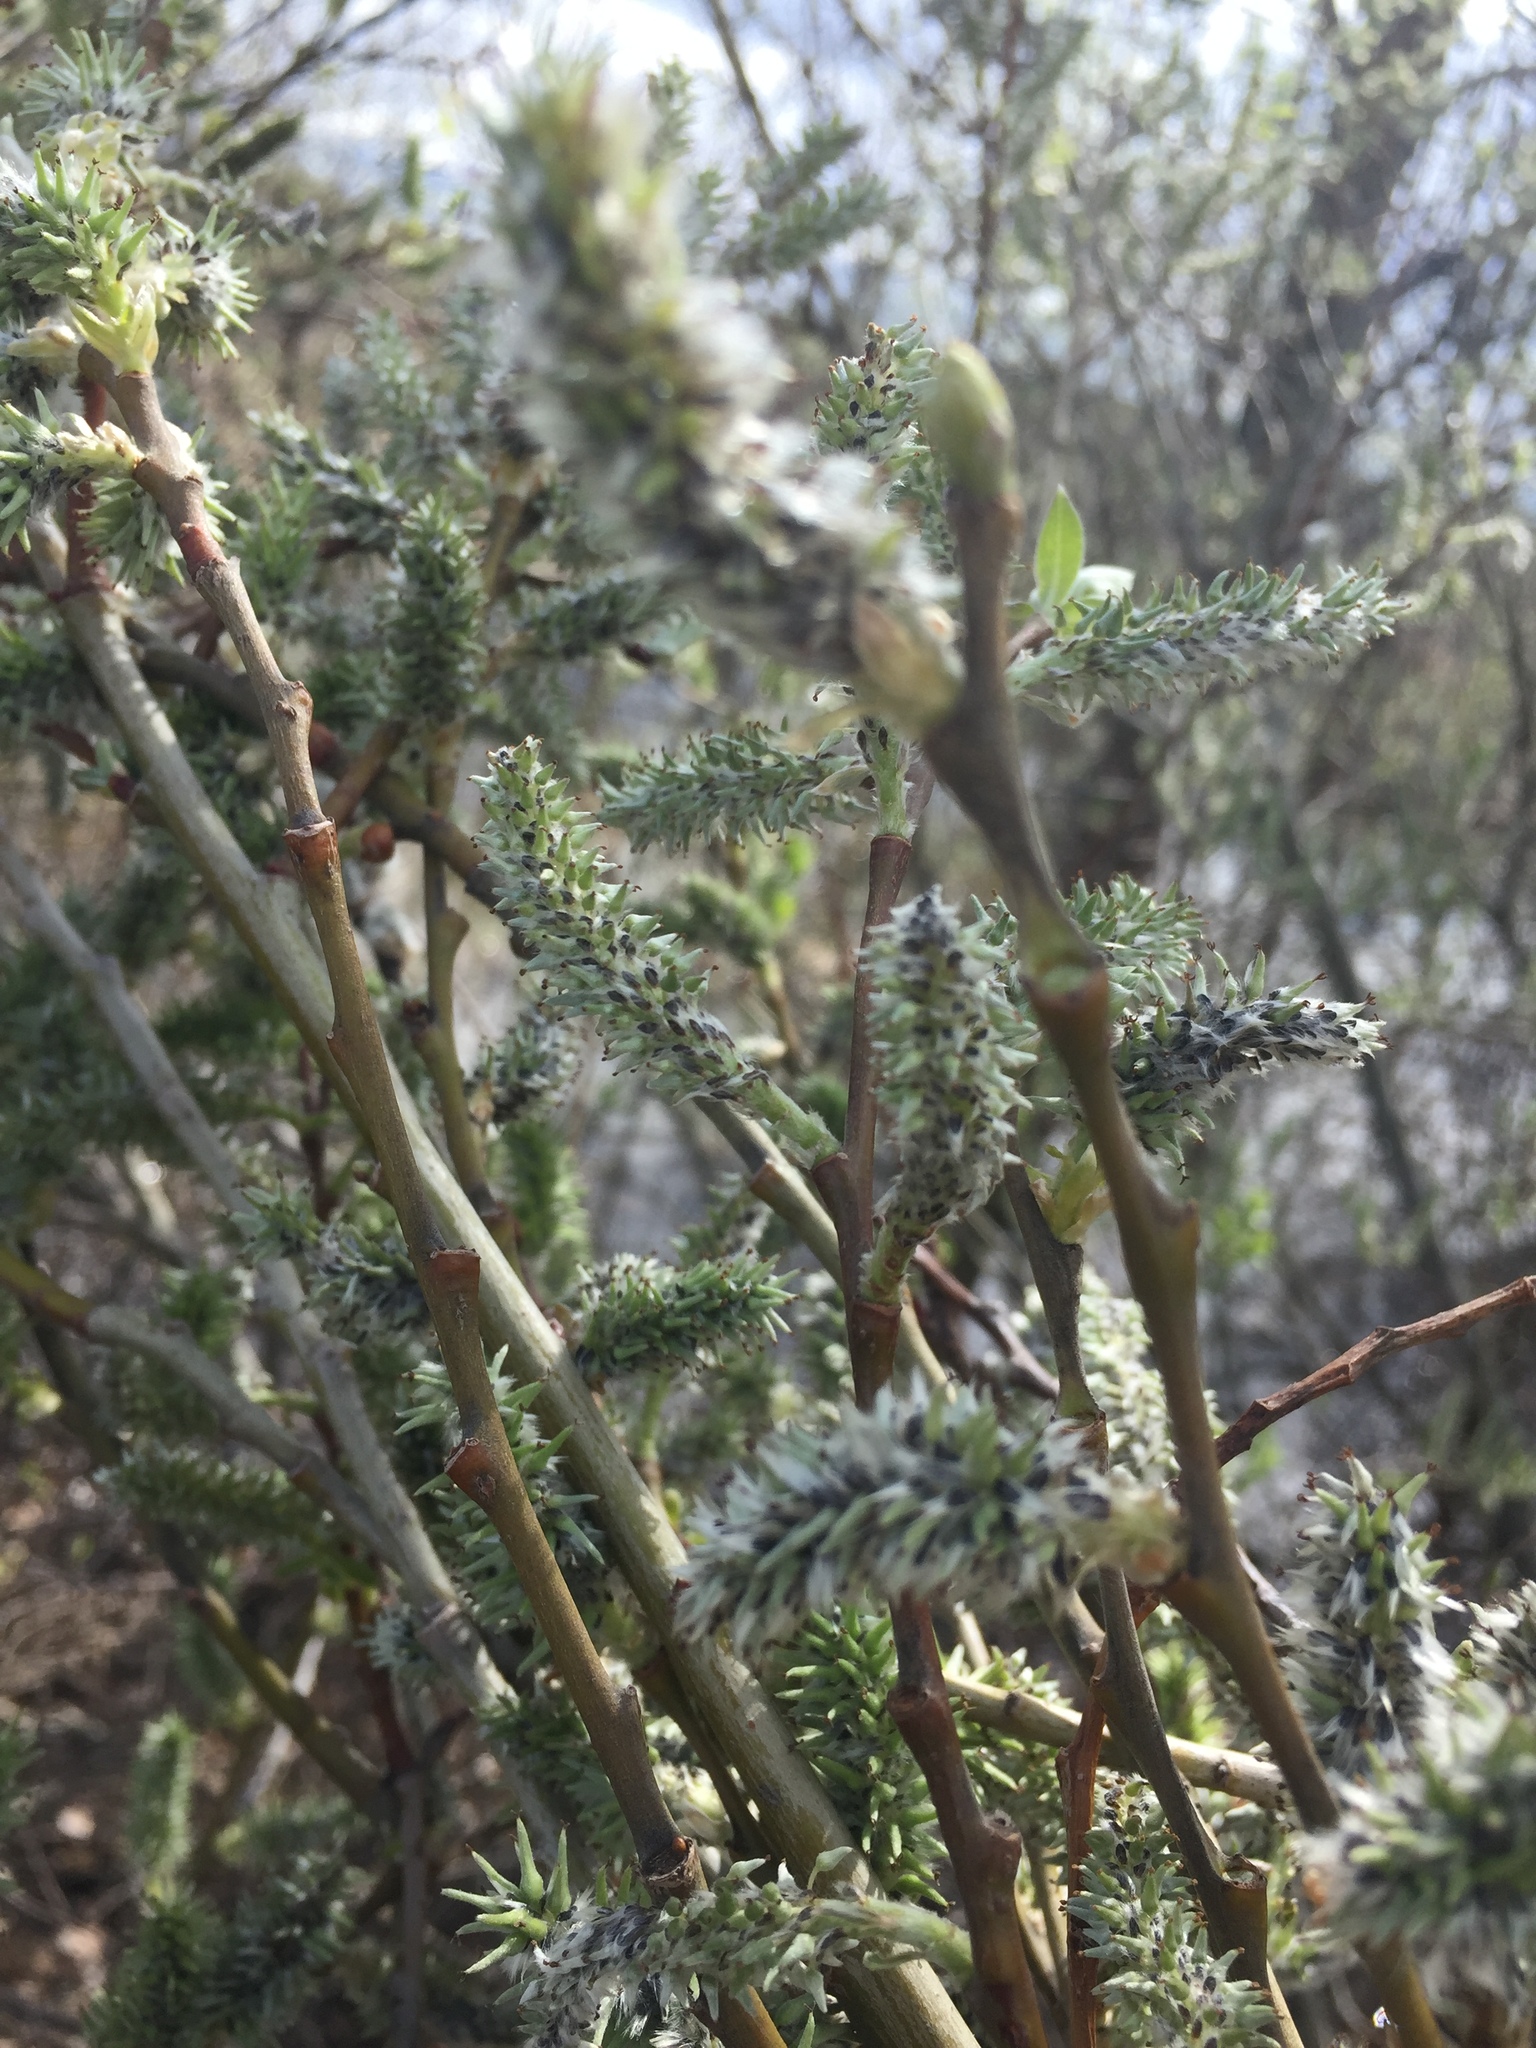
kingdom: Plantae
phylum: Tracheophyta
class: Magnoliopsida
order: Malpighiales
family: Salicaceae
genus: Salix
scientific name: Salix cinerea
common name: Common sallow
